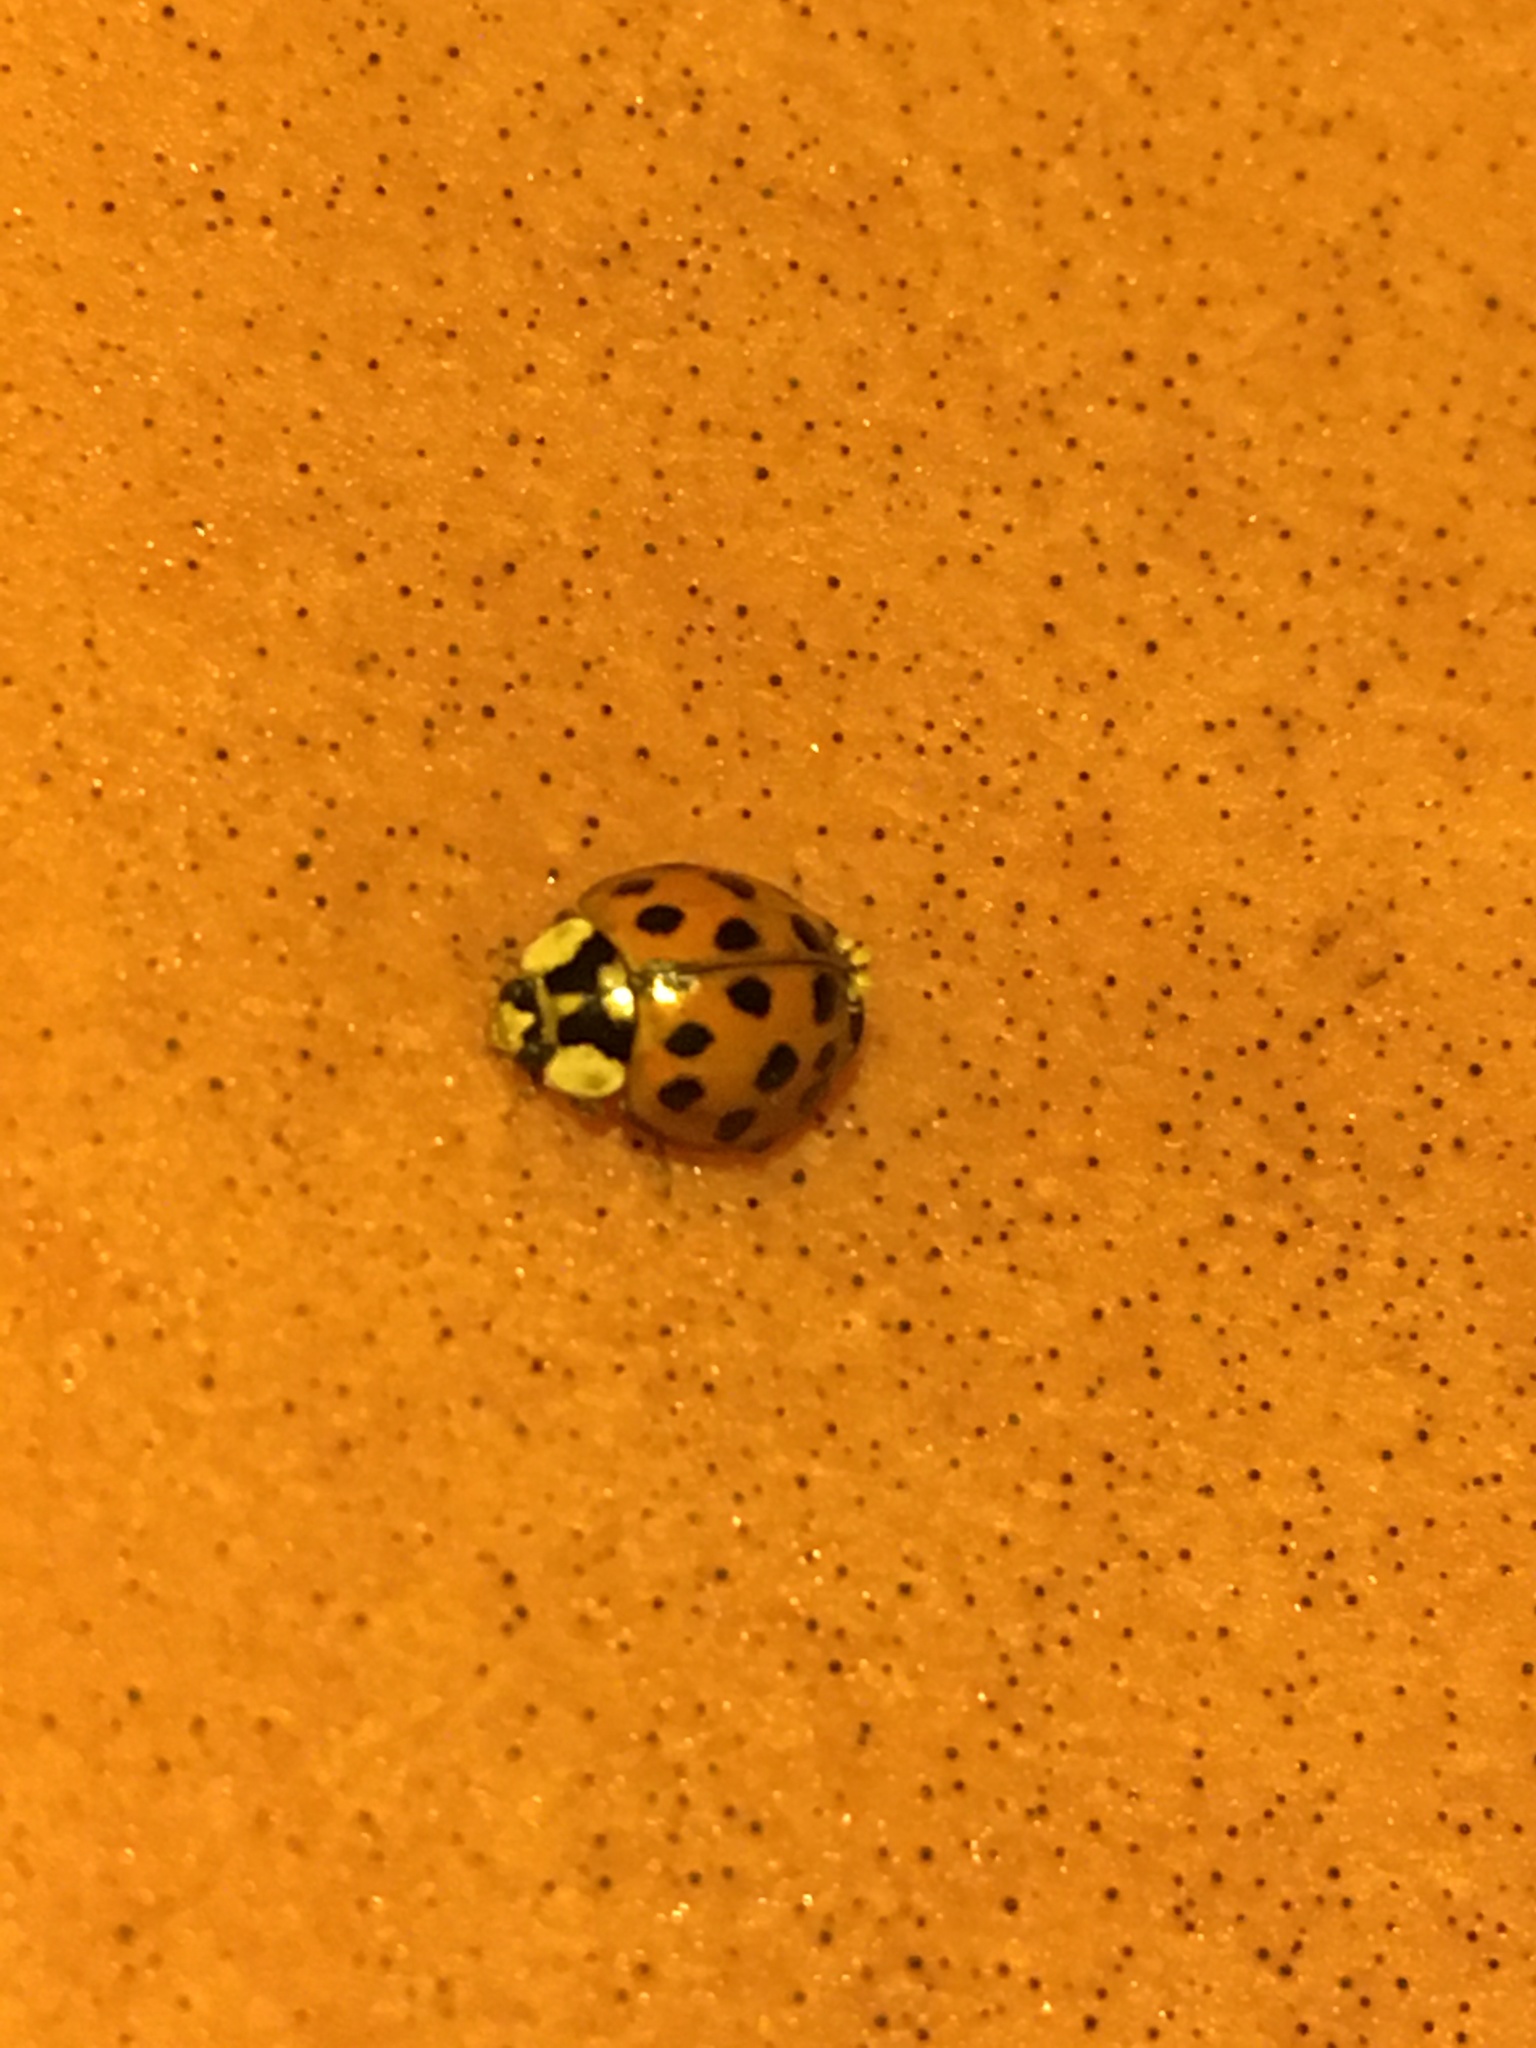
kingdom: Animalia
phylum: Arthropoda
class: Insecta
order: Coleoptera
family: Coccinellidae
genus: Harmonia
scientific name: Harmonia axyridis
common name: Harlequin ladybird
